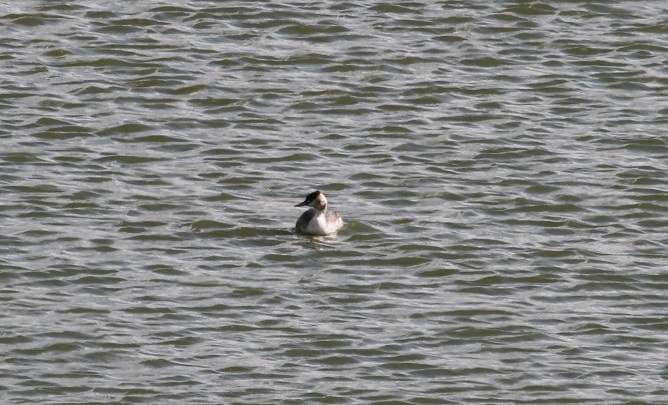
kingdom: Animalia
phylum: Chordata
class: Aves
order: Podicipediformes
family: Podicipedidae
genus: Podiceps
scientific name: Podiceps cristatus
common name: Great crested grebe
